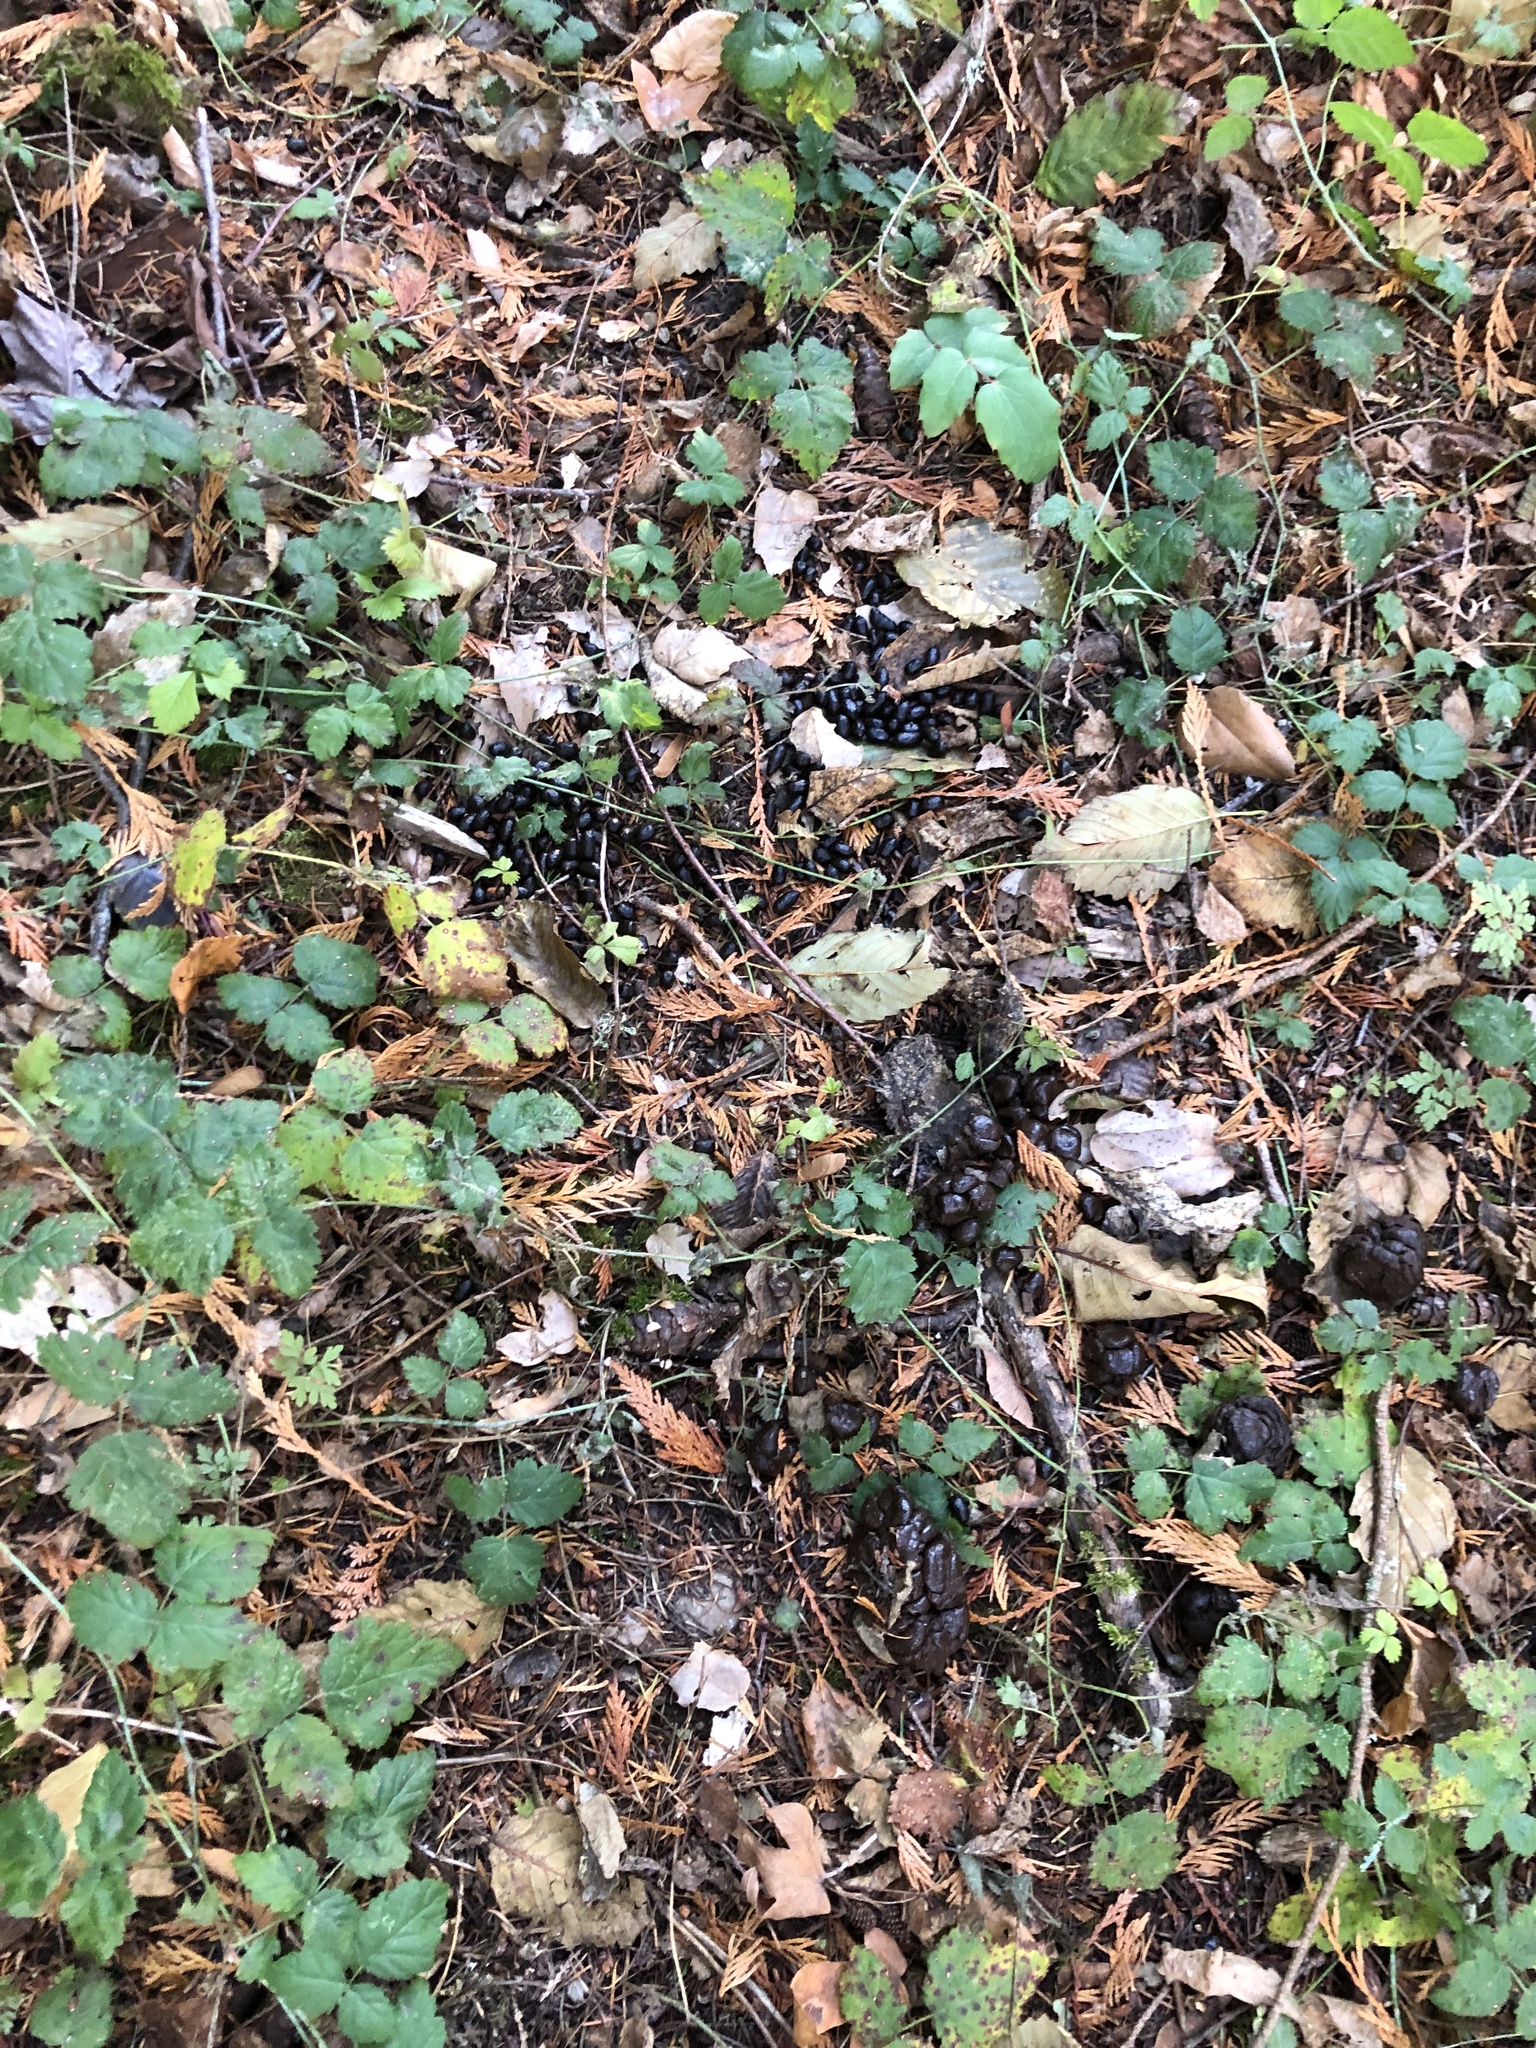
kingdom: Animalia
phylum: Chordata
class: Mammalia
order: Artiodactyla
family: Cervidae
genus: Odocoileus
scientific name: Odocoileus hemionus
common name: Mule deer
